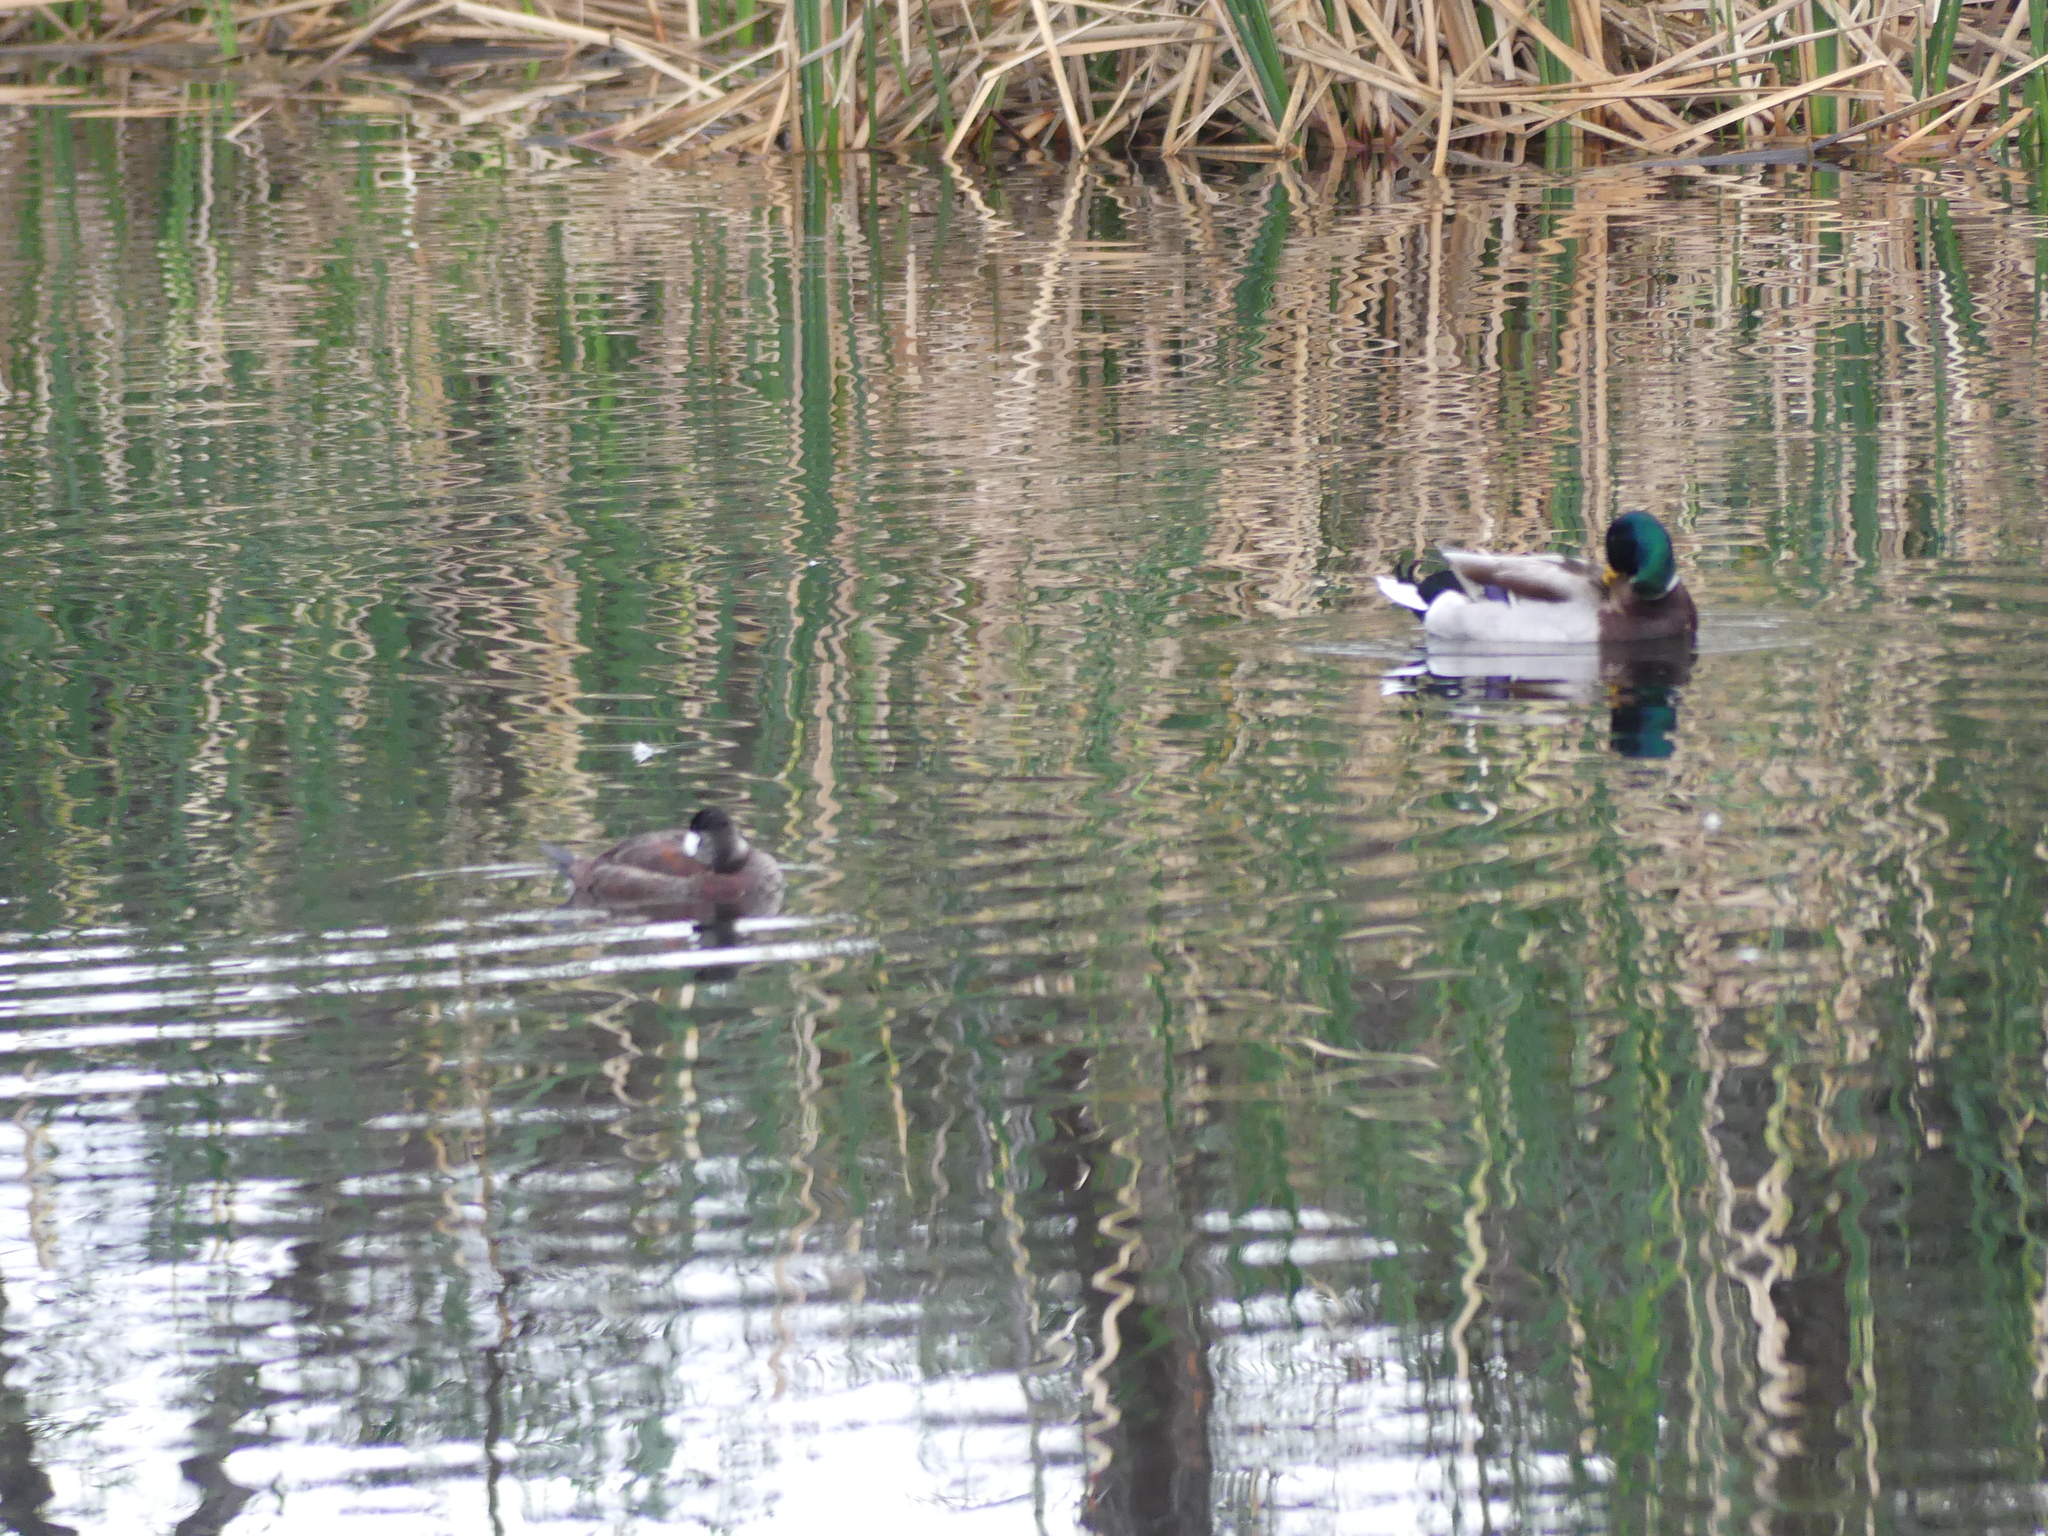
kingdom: Animalia
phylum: Chordata
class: Aves
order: Anseriformes
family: Anatidae
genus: Anas
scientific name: Anas platyrhynchos
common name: Mallard
